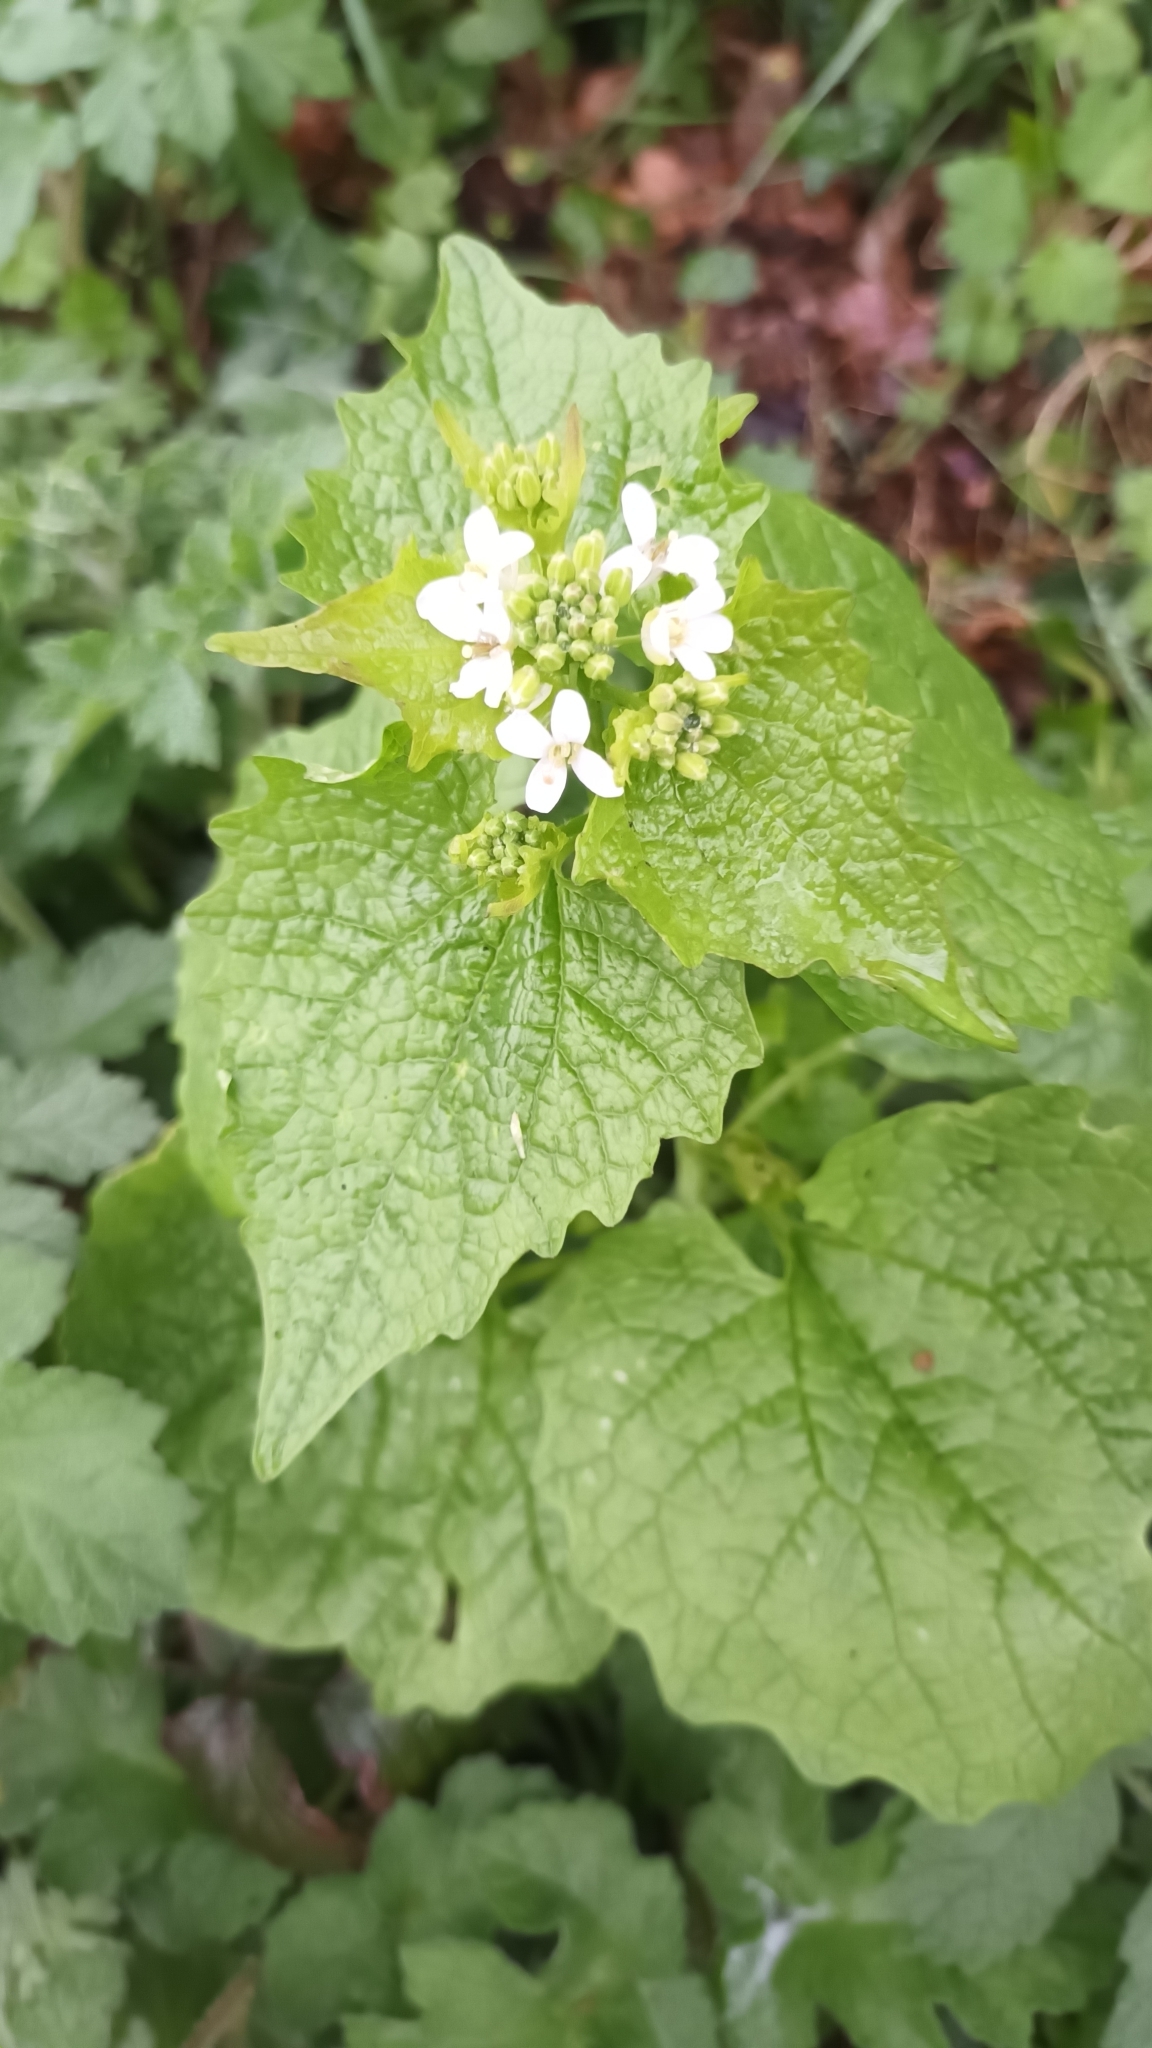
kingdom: Plantae
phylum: Tracheophyta
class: Magnoliopsida
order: Brassicales
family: Brassicaceae
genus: Alliaria
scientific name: Alliaria petiolata
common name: Garlic mustard
